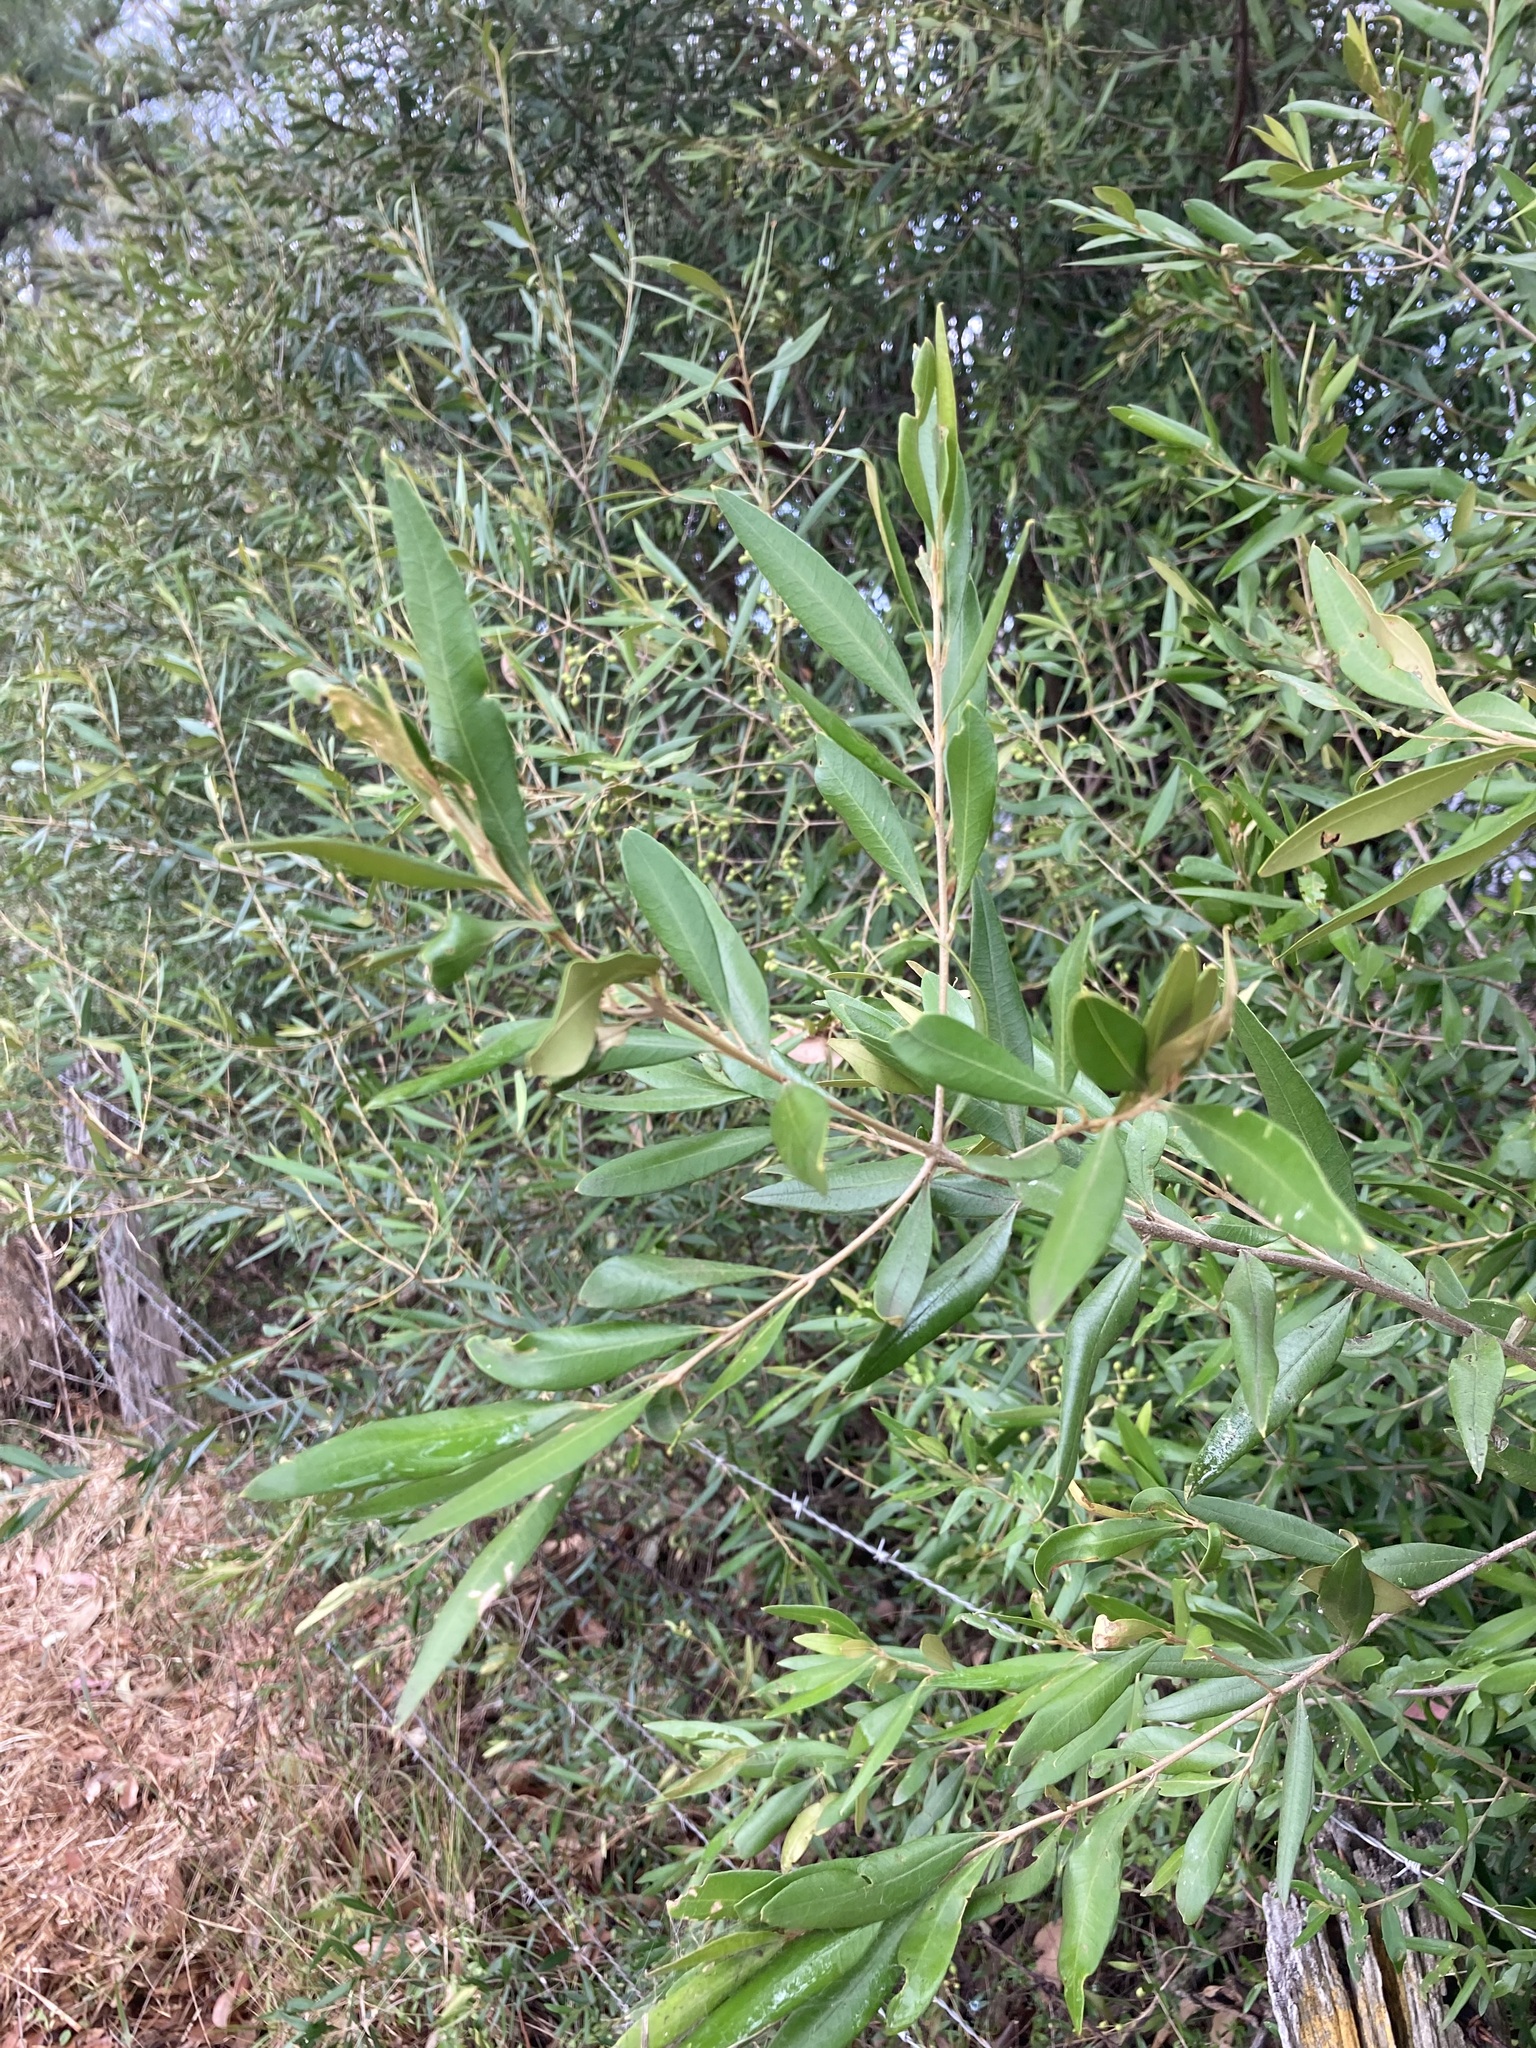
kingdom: Plantae
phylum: Tracheophyta
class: Magnoliopsida
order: Lamiales
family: Oleaceae
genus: Olea
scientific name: Olea europaea
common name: Olive
